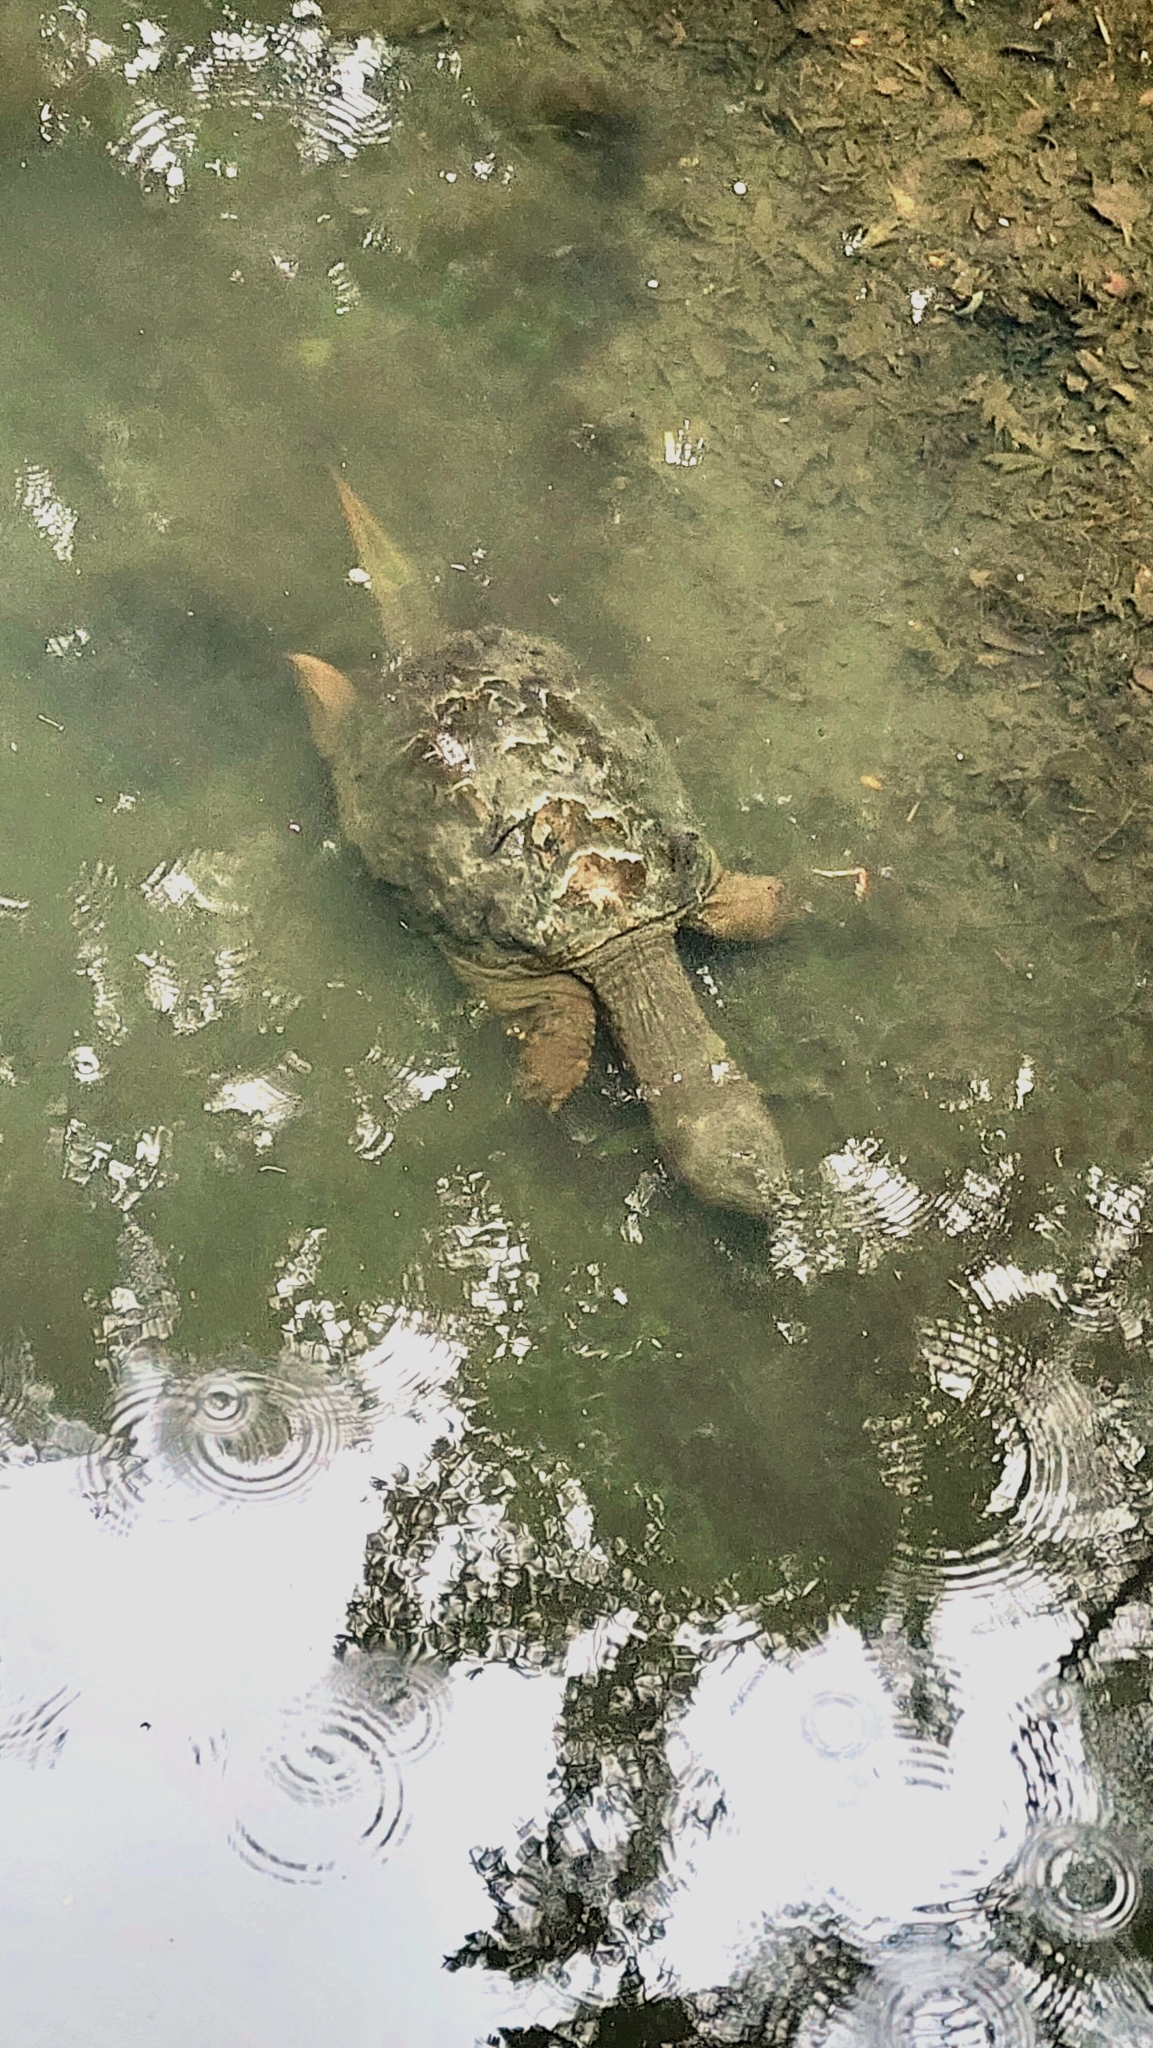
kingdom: Animalia
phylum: Chordata
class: Testudines
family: Chelydridae
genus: Chelydra
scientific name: Chelydra serpentina
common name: Common snapping turtle
